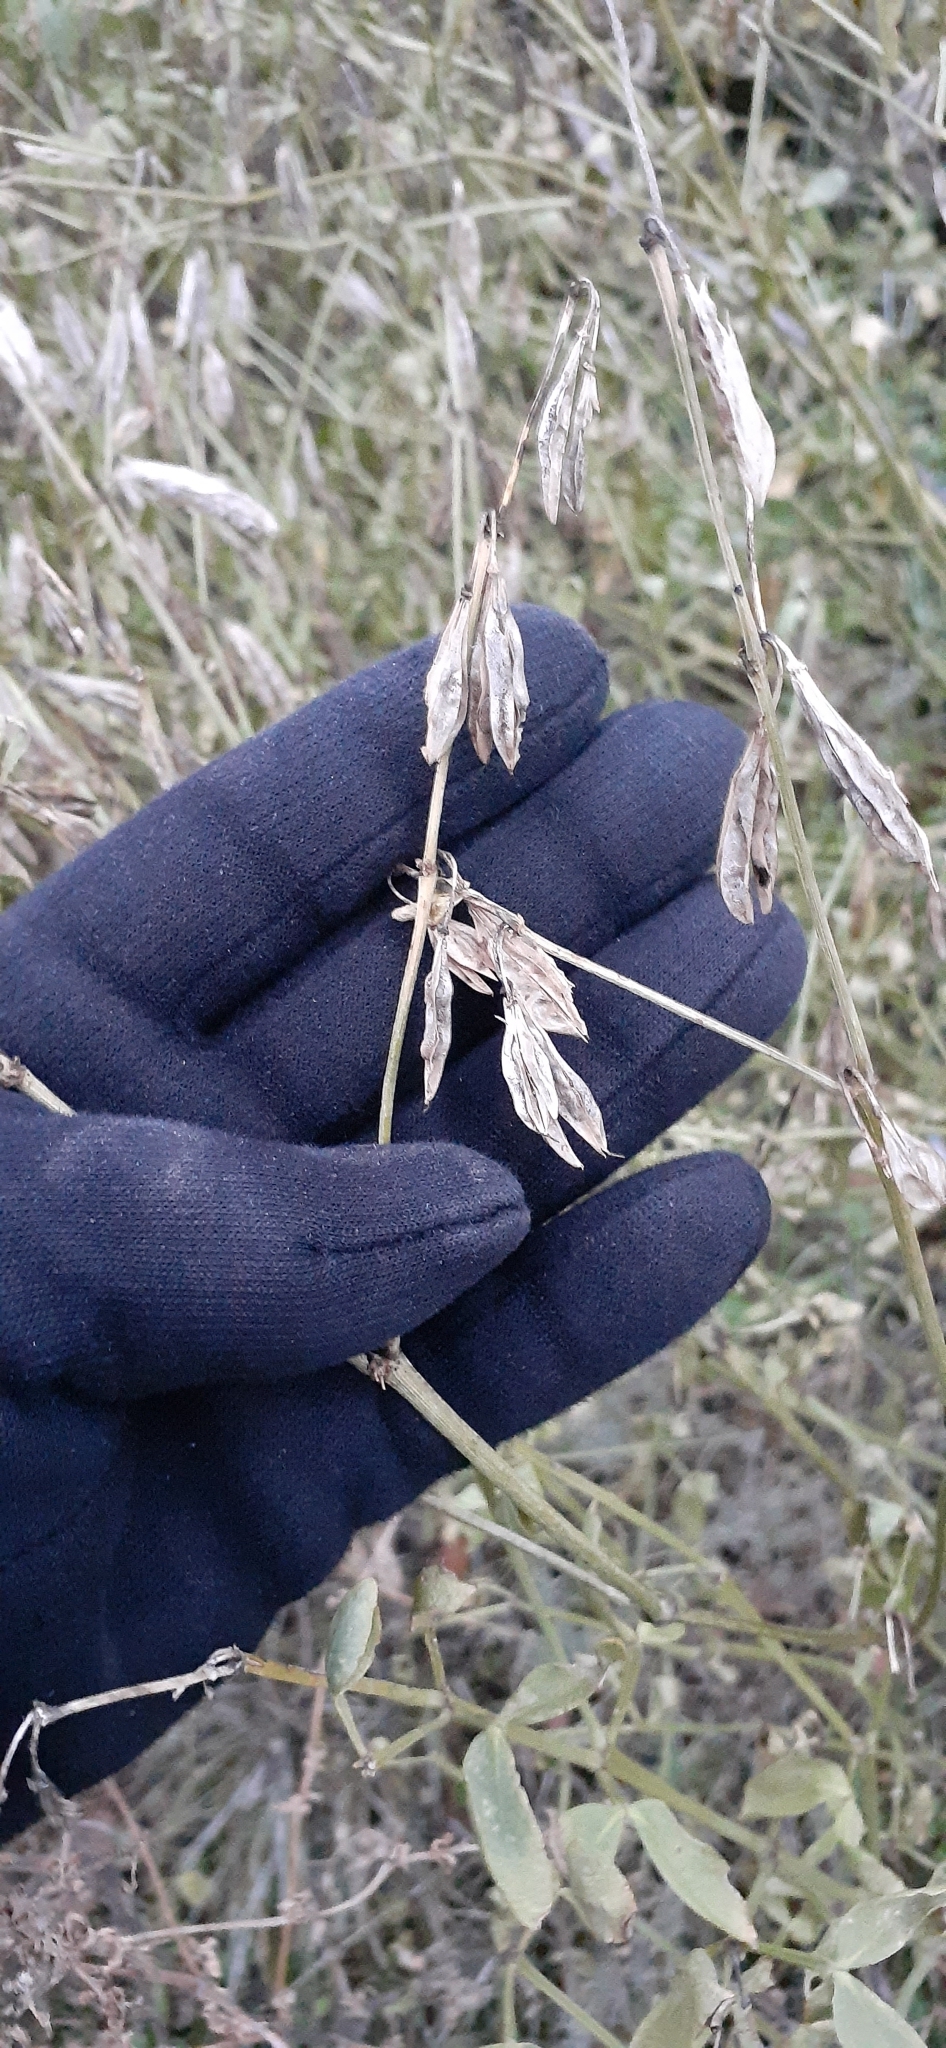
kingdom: Plantae
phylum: Tracheophyta
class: Magnoliopsida
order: Zygophyllales
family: Zygophyllaceae
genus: Zygophyllum
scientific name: Zygophyllum fabago
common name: Syrian beancaper
